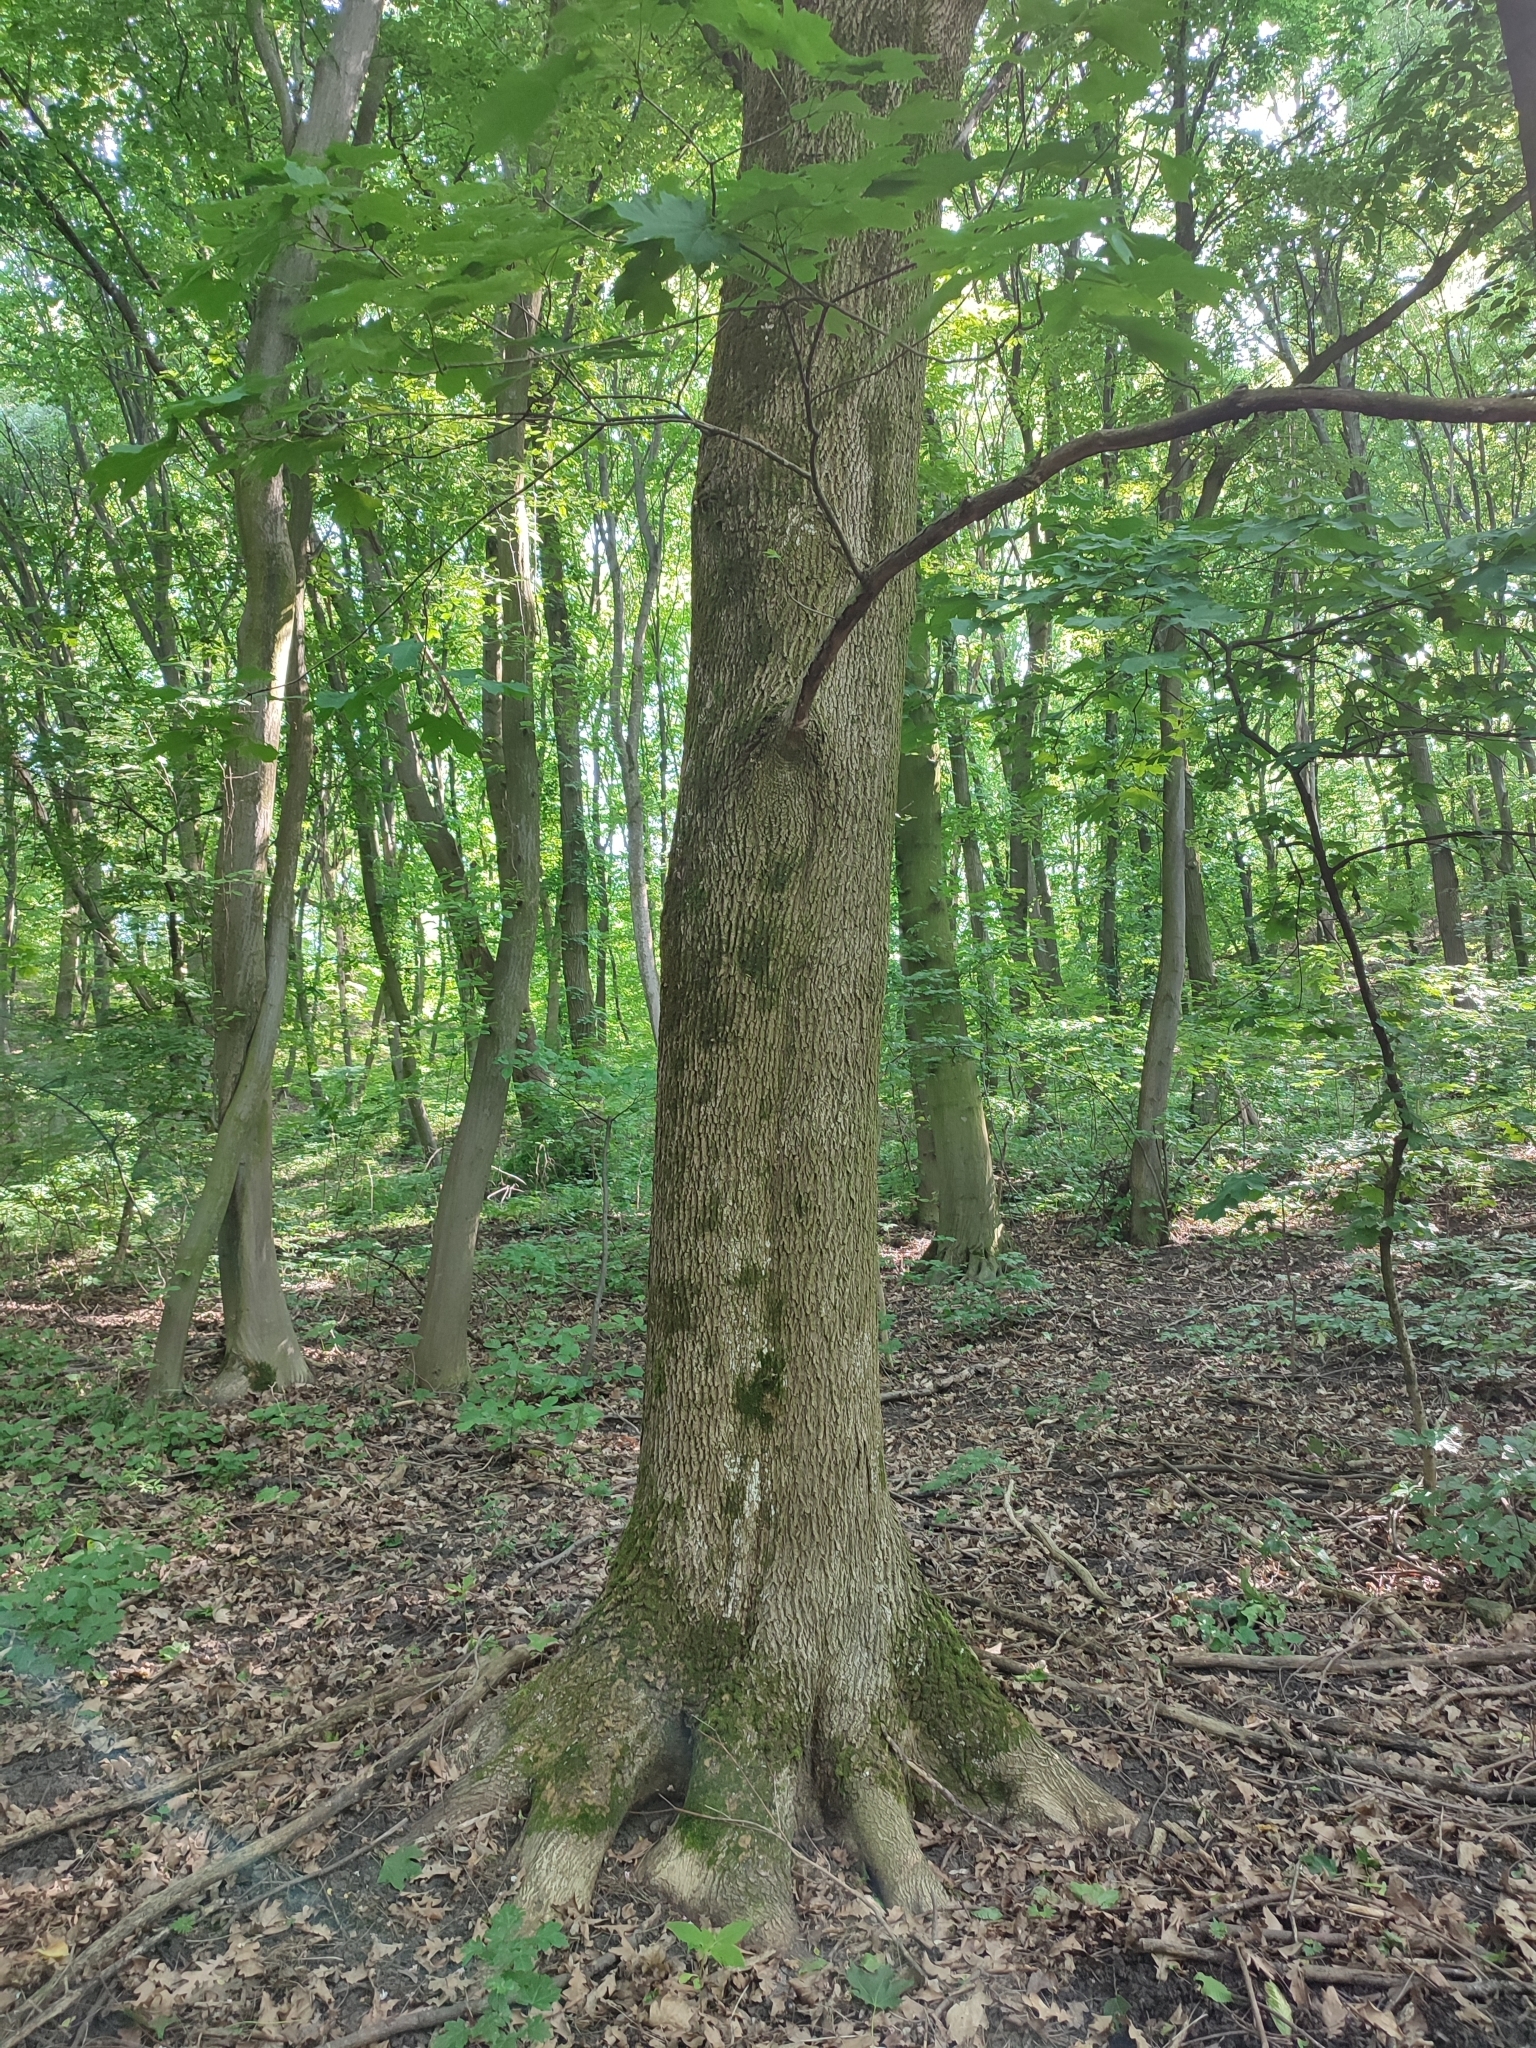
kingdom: Plantae
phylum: Tracheophyta
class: Magnoliopsida
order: Sapindales
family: Sapindaceae
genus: Acer
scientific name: Acer platanoides
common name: Norway maple
